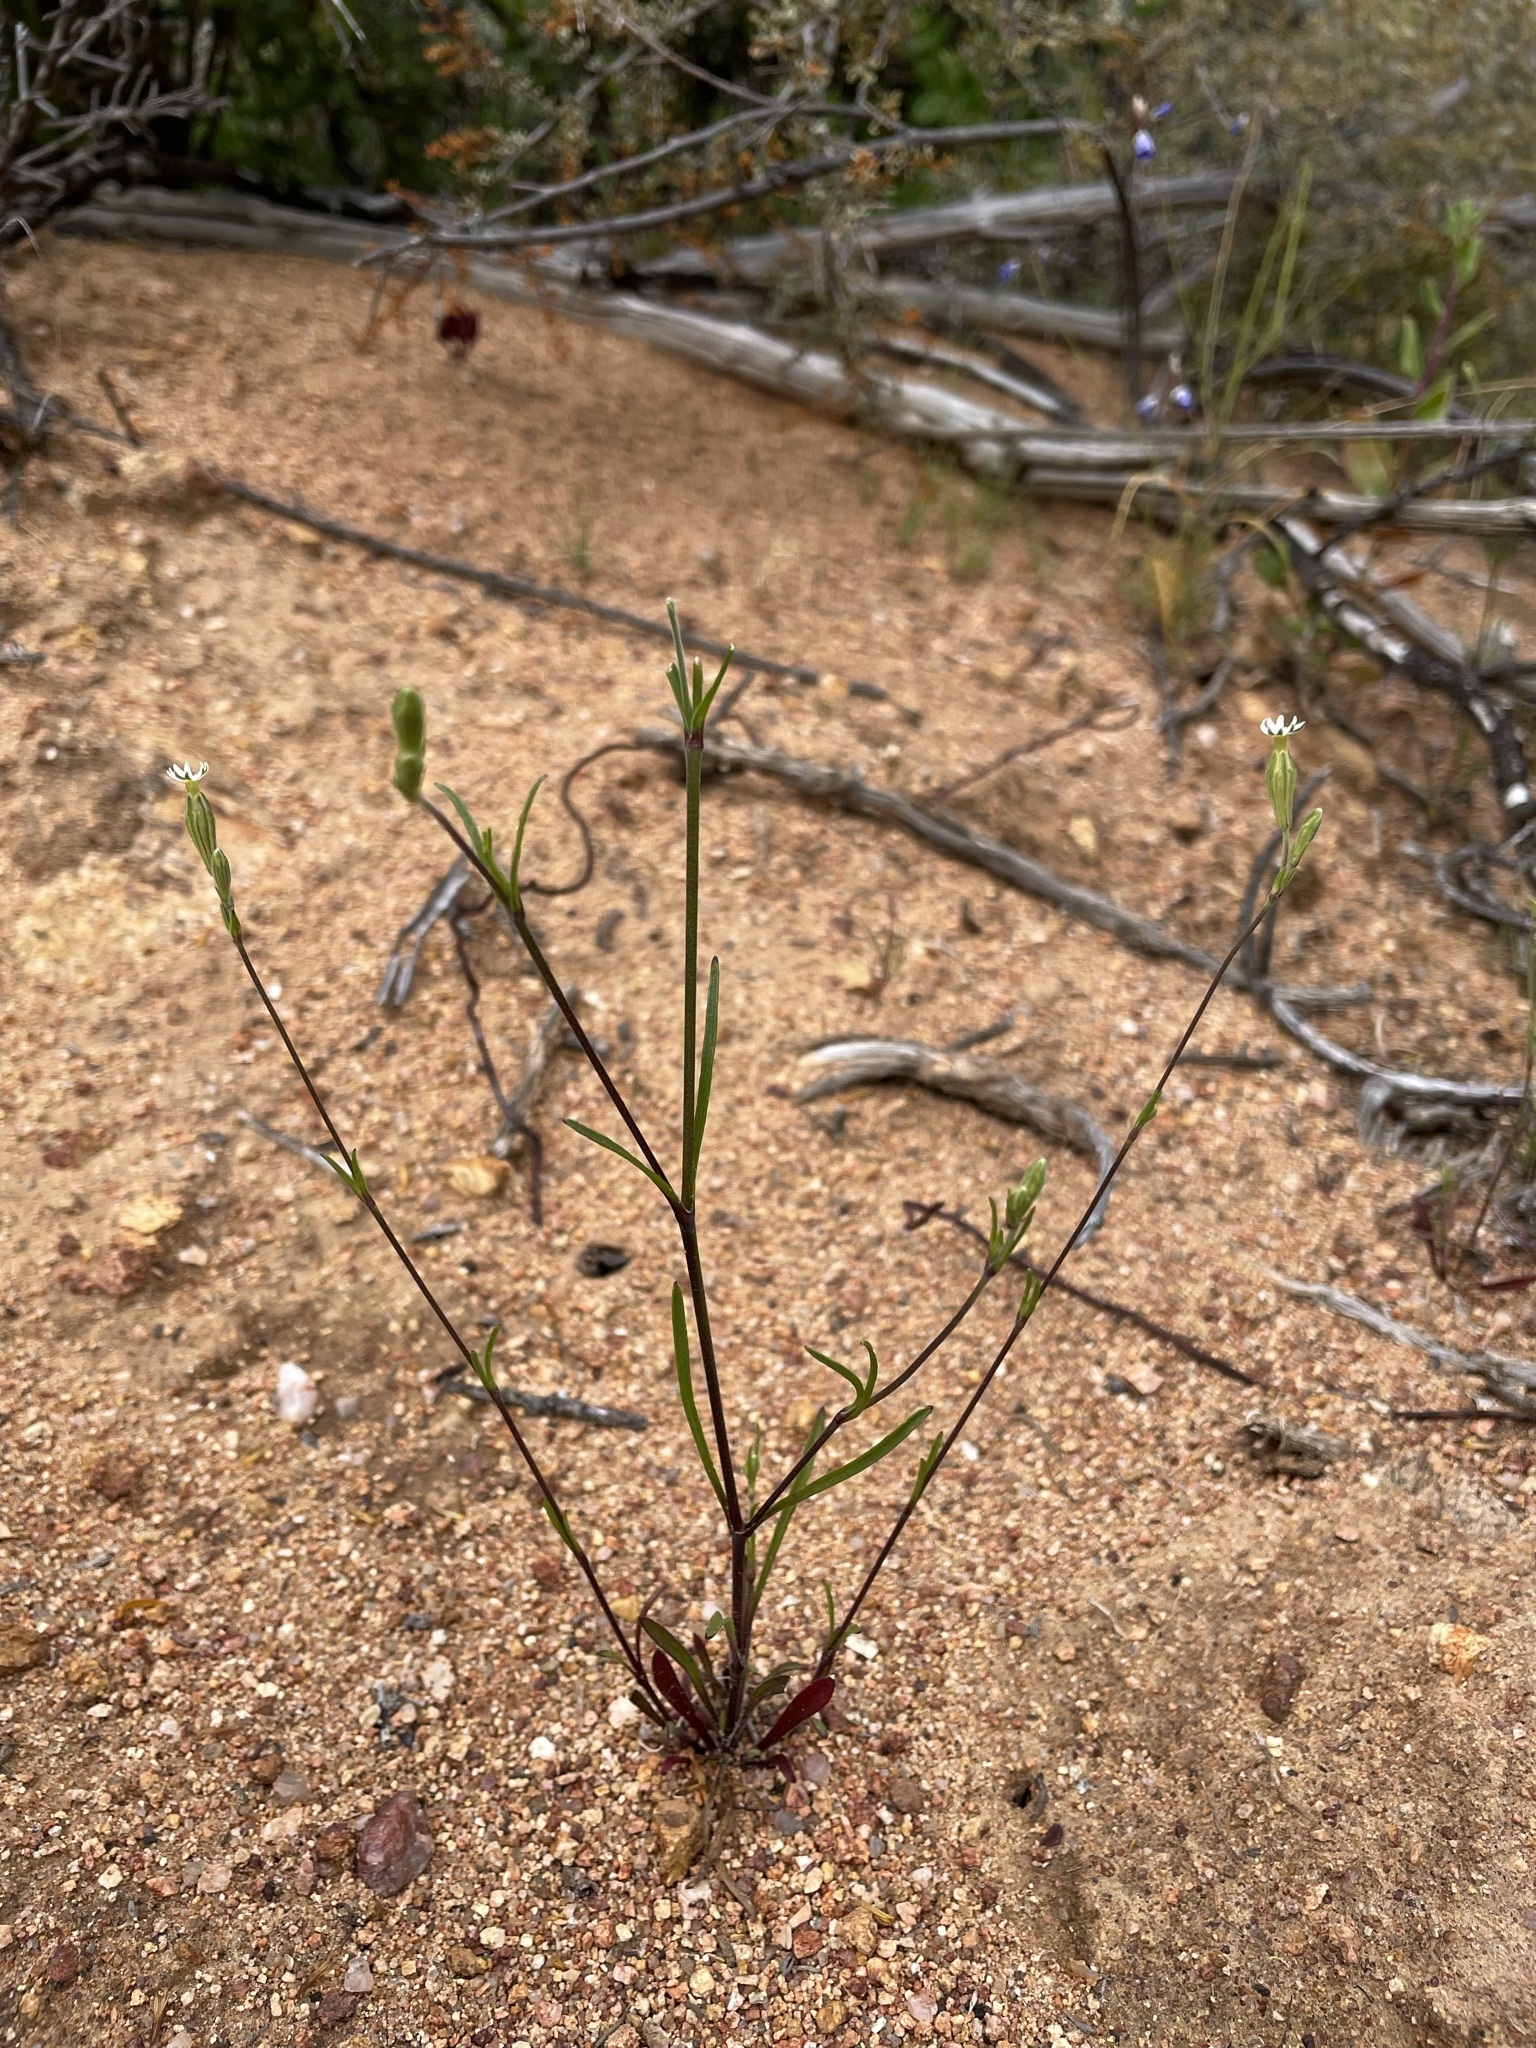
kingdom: Plantae
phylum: Tracheophyta
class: Magnoliopsida
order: Caryophyllales
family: Caryophyllaceae
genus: Silene
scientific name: Silene aethiopica
